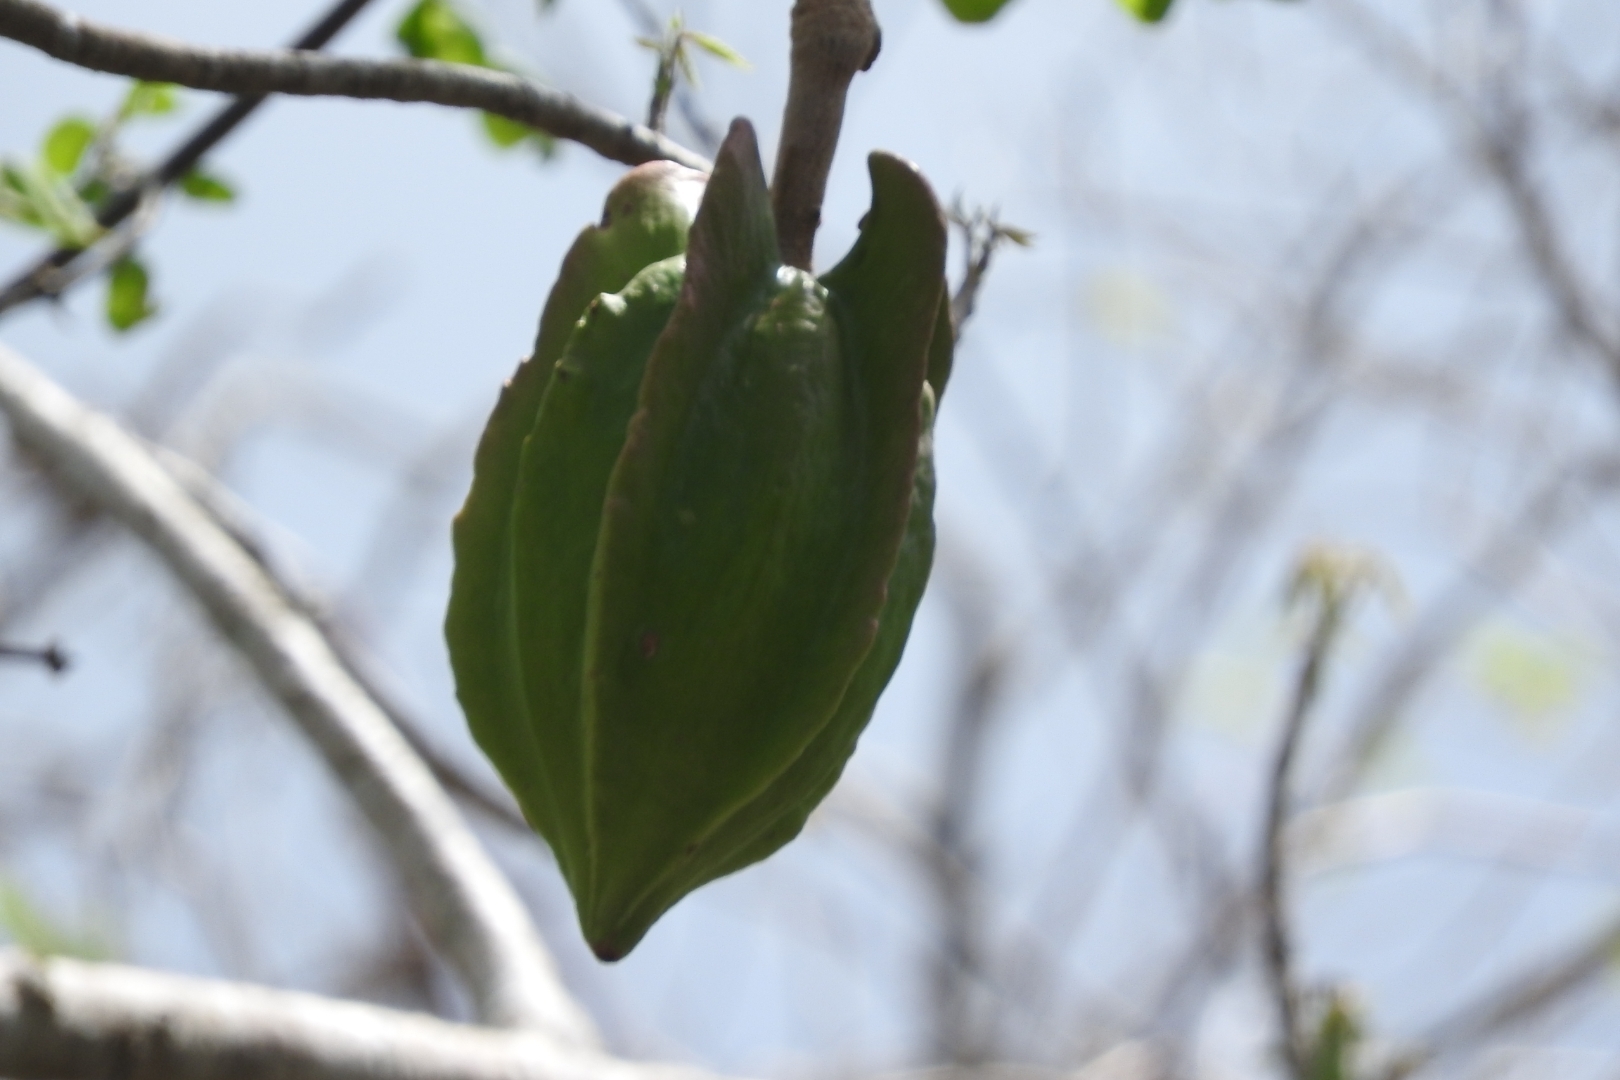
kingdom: Plantae
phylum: Tracheophyta
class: Magnoliopsida
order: Brassicales
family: Caricaceae
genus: Jacaratia
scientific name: Jacaratia mexicana
